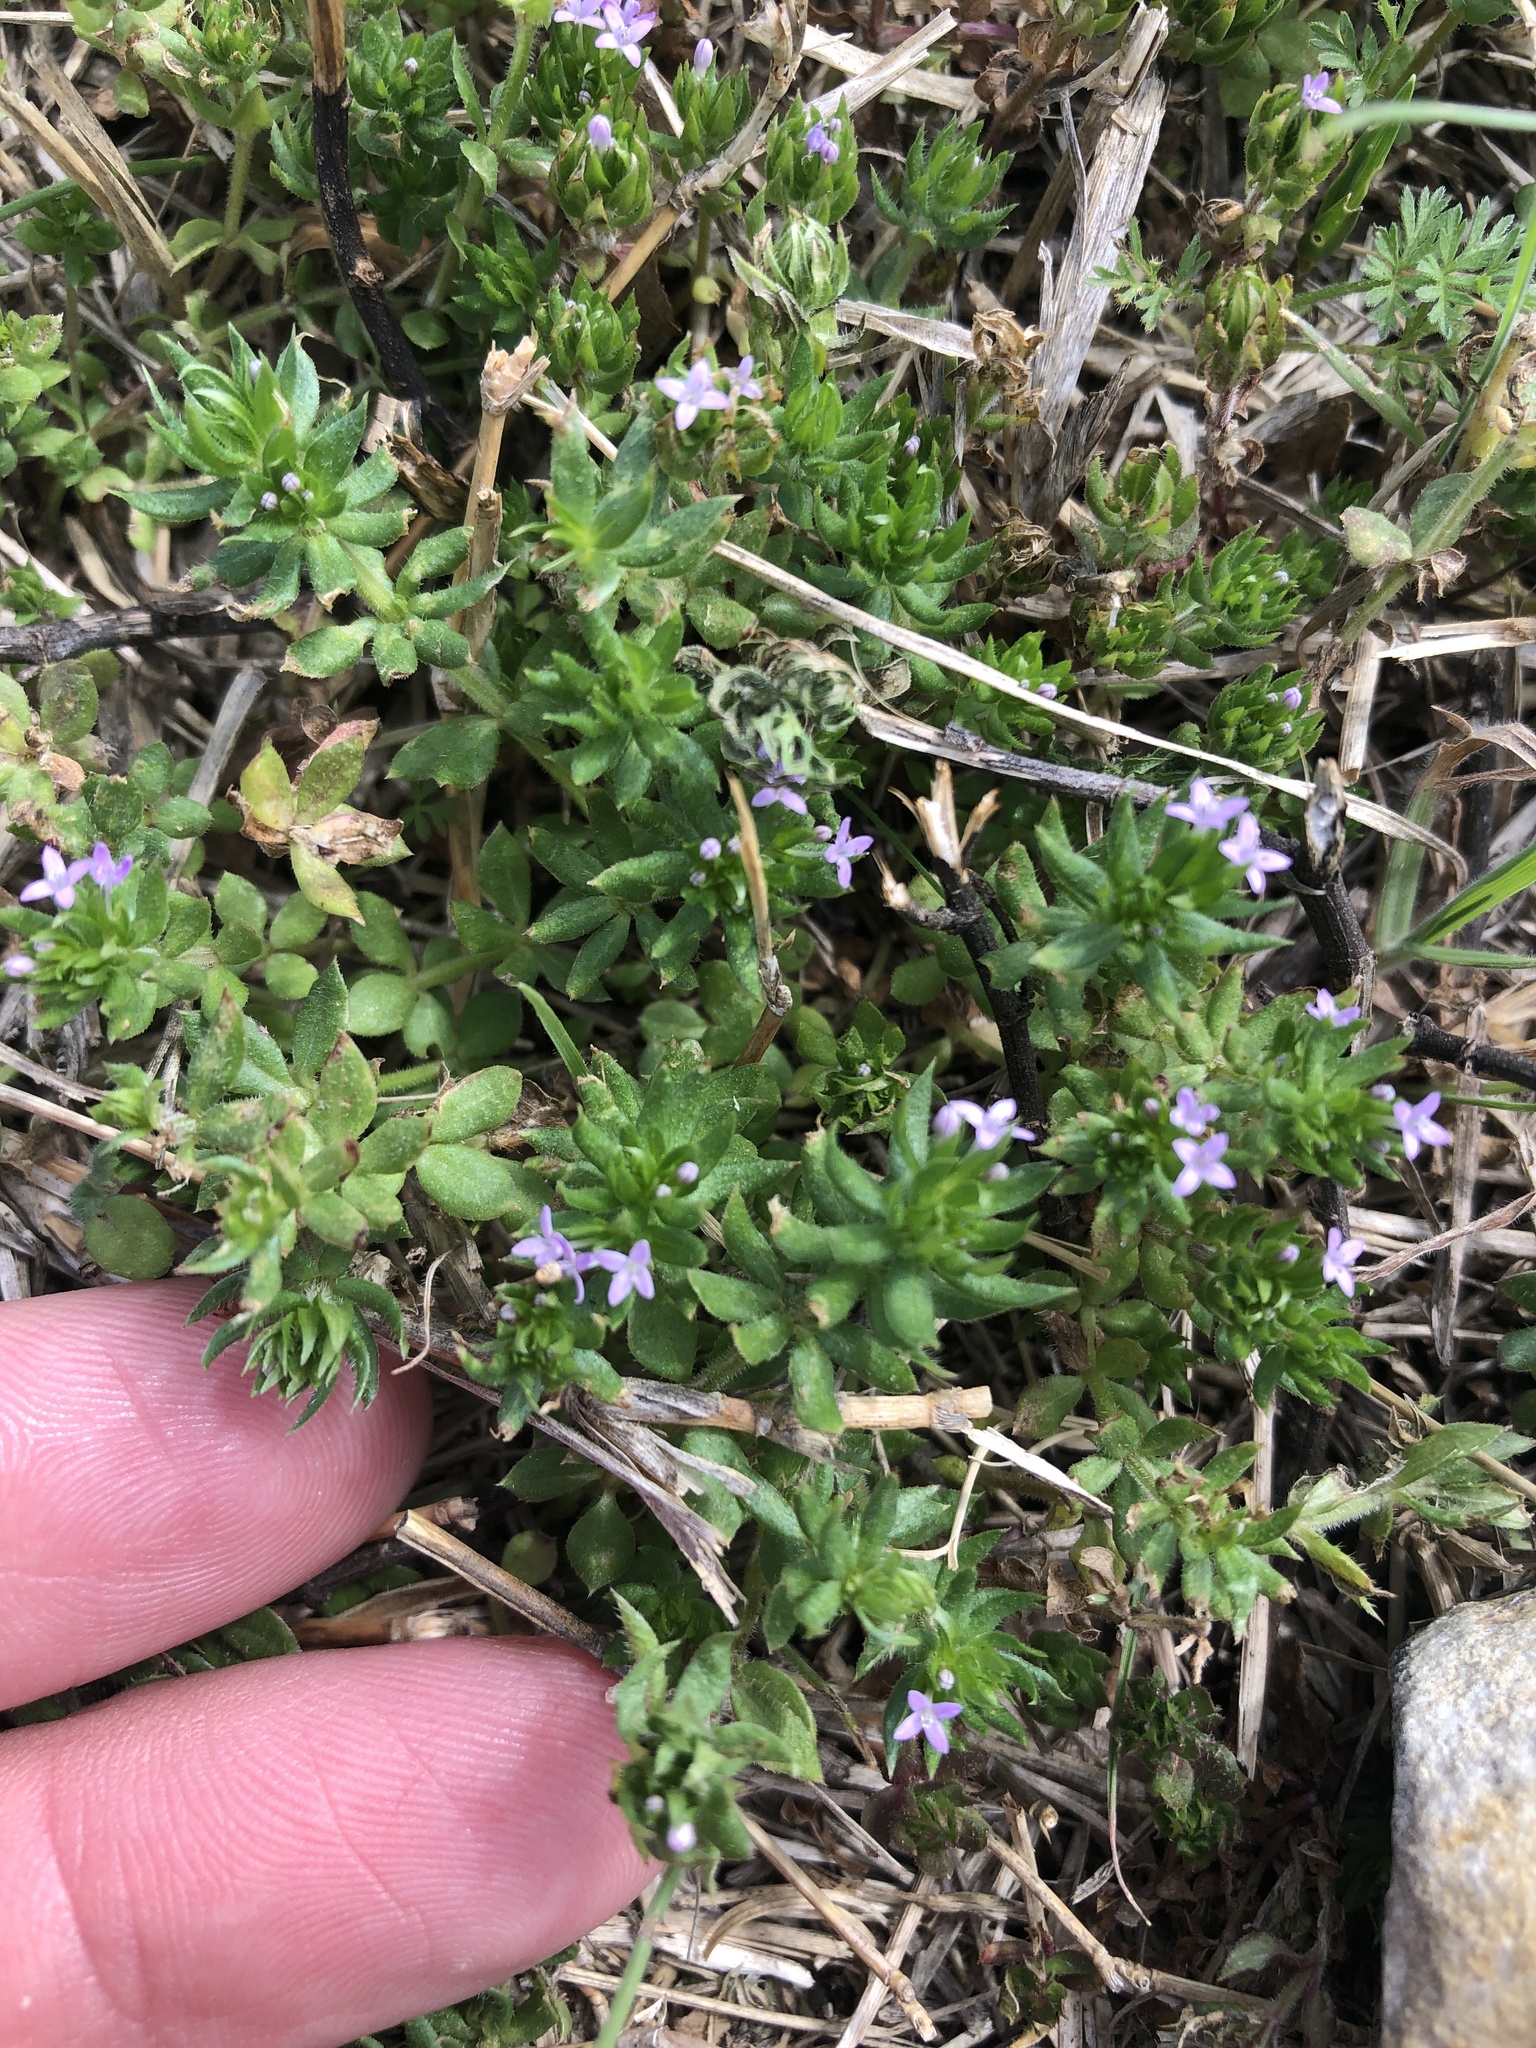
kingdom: Plantae
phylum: Tracheophyta
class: Magnoliopsida
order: Gentianales
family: Rubiaceae
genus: Sherardia
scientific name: Sherardia arvensis
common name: Field madder
